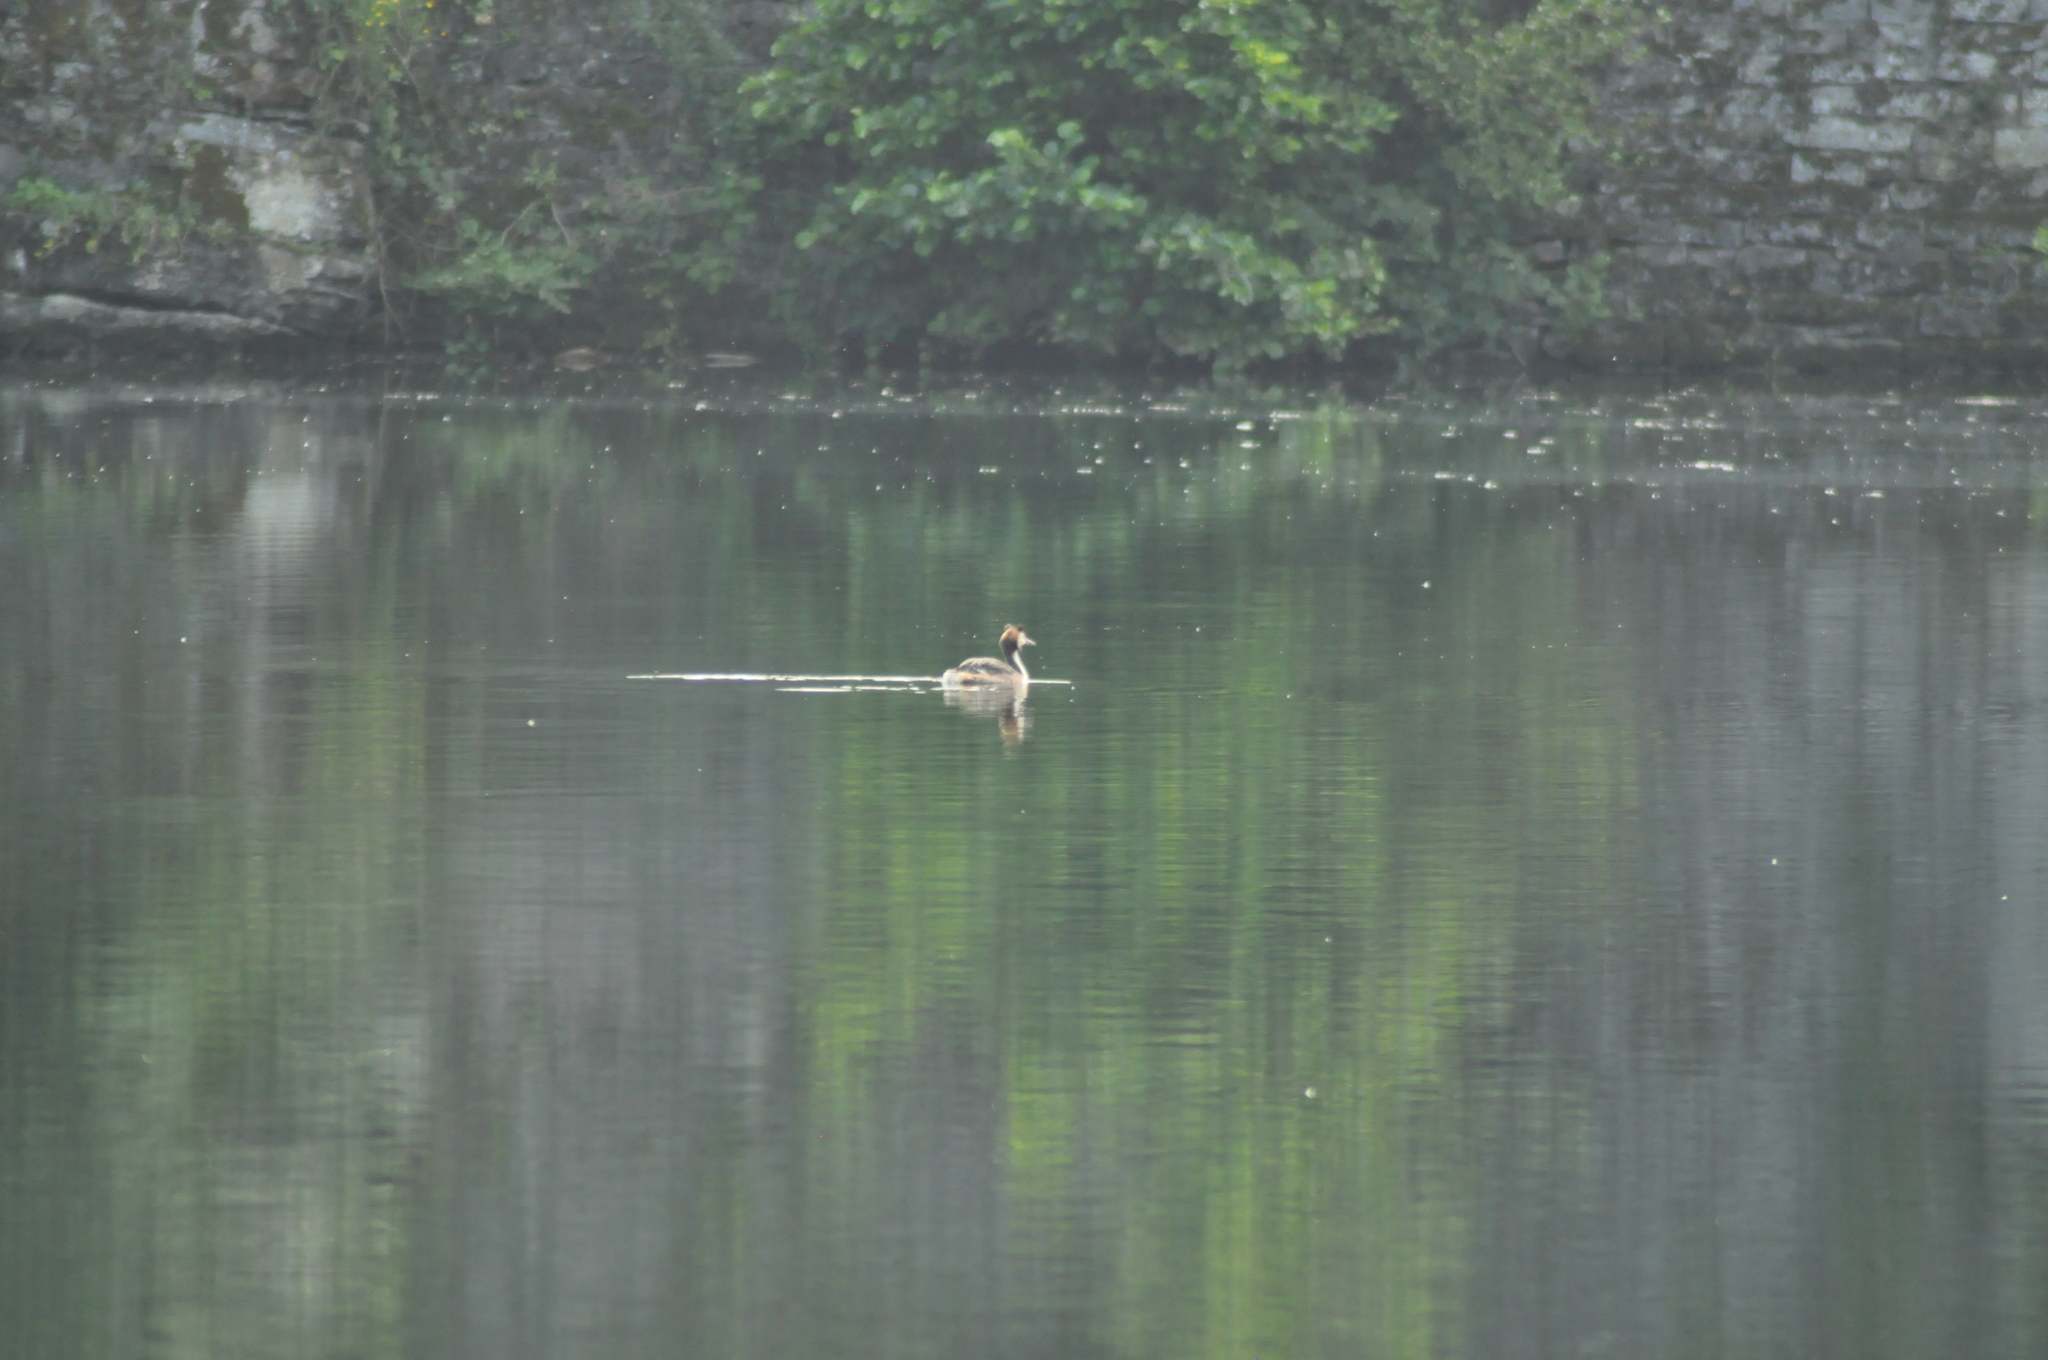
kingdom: Animalia
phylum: Chordata
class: Aves
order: Podicipediformes
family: Podicipedidae
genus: Podiceps
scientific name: Podiceps cristatus
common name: Great crested grebe
